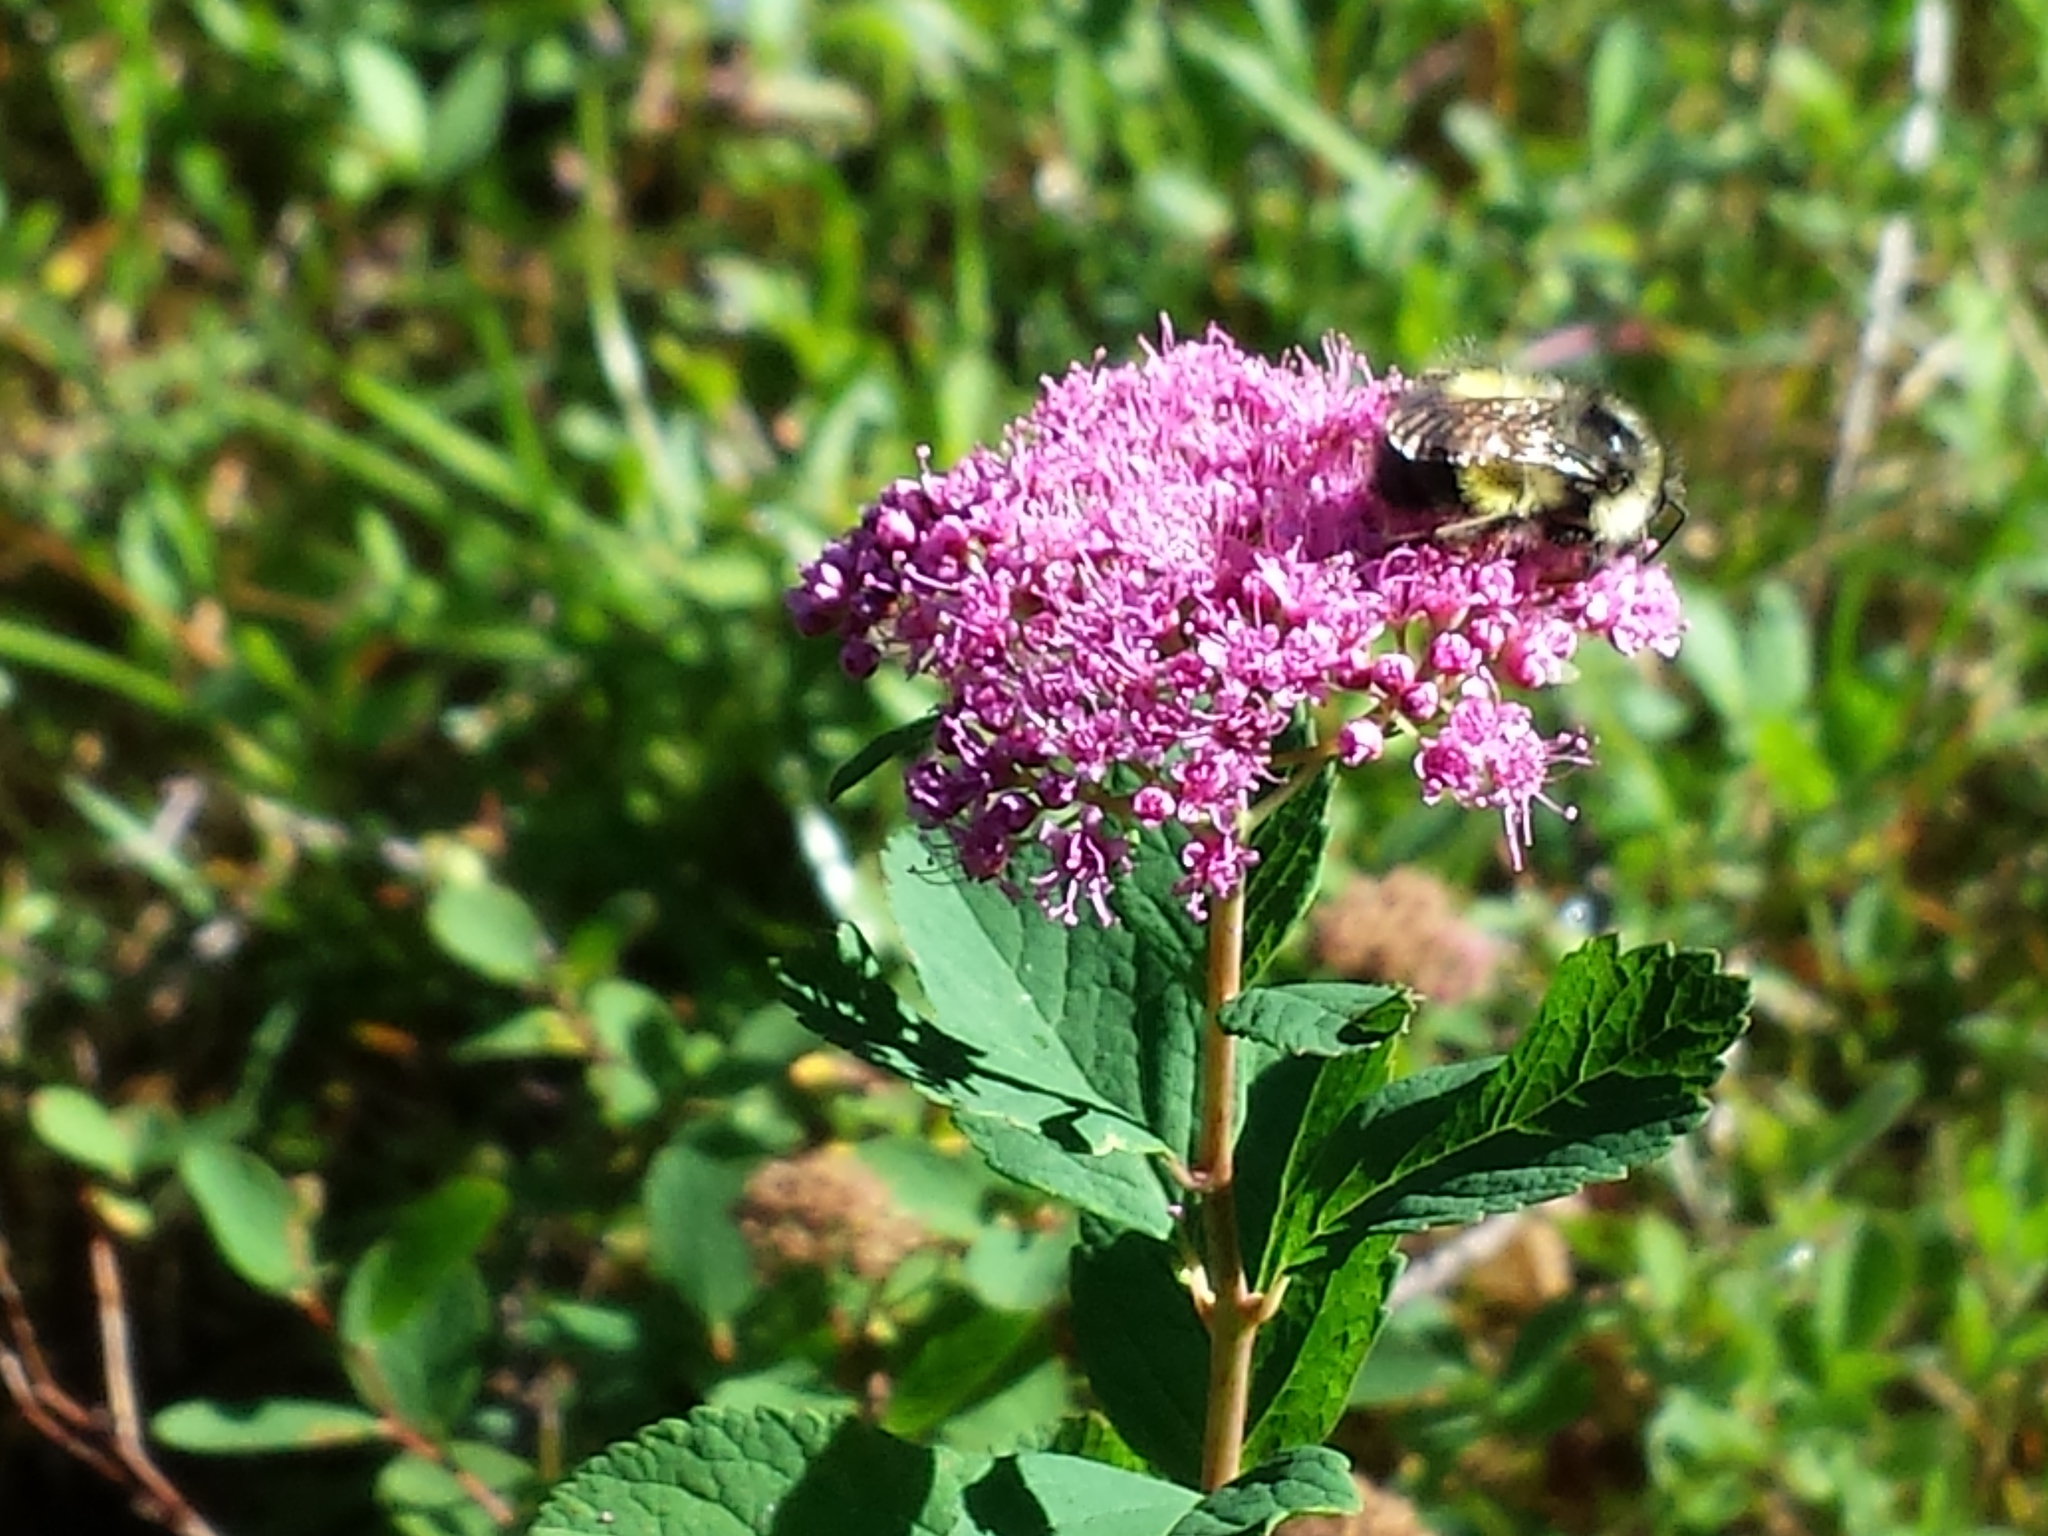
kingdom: Plantae
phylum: Tracheophyta
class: Magnoliopsida
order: Rosales
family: Rosaceae
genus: Spiraea
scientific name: Spiraea splendens
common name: Subalpine meadowsweet
